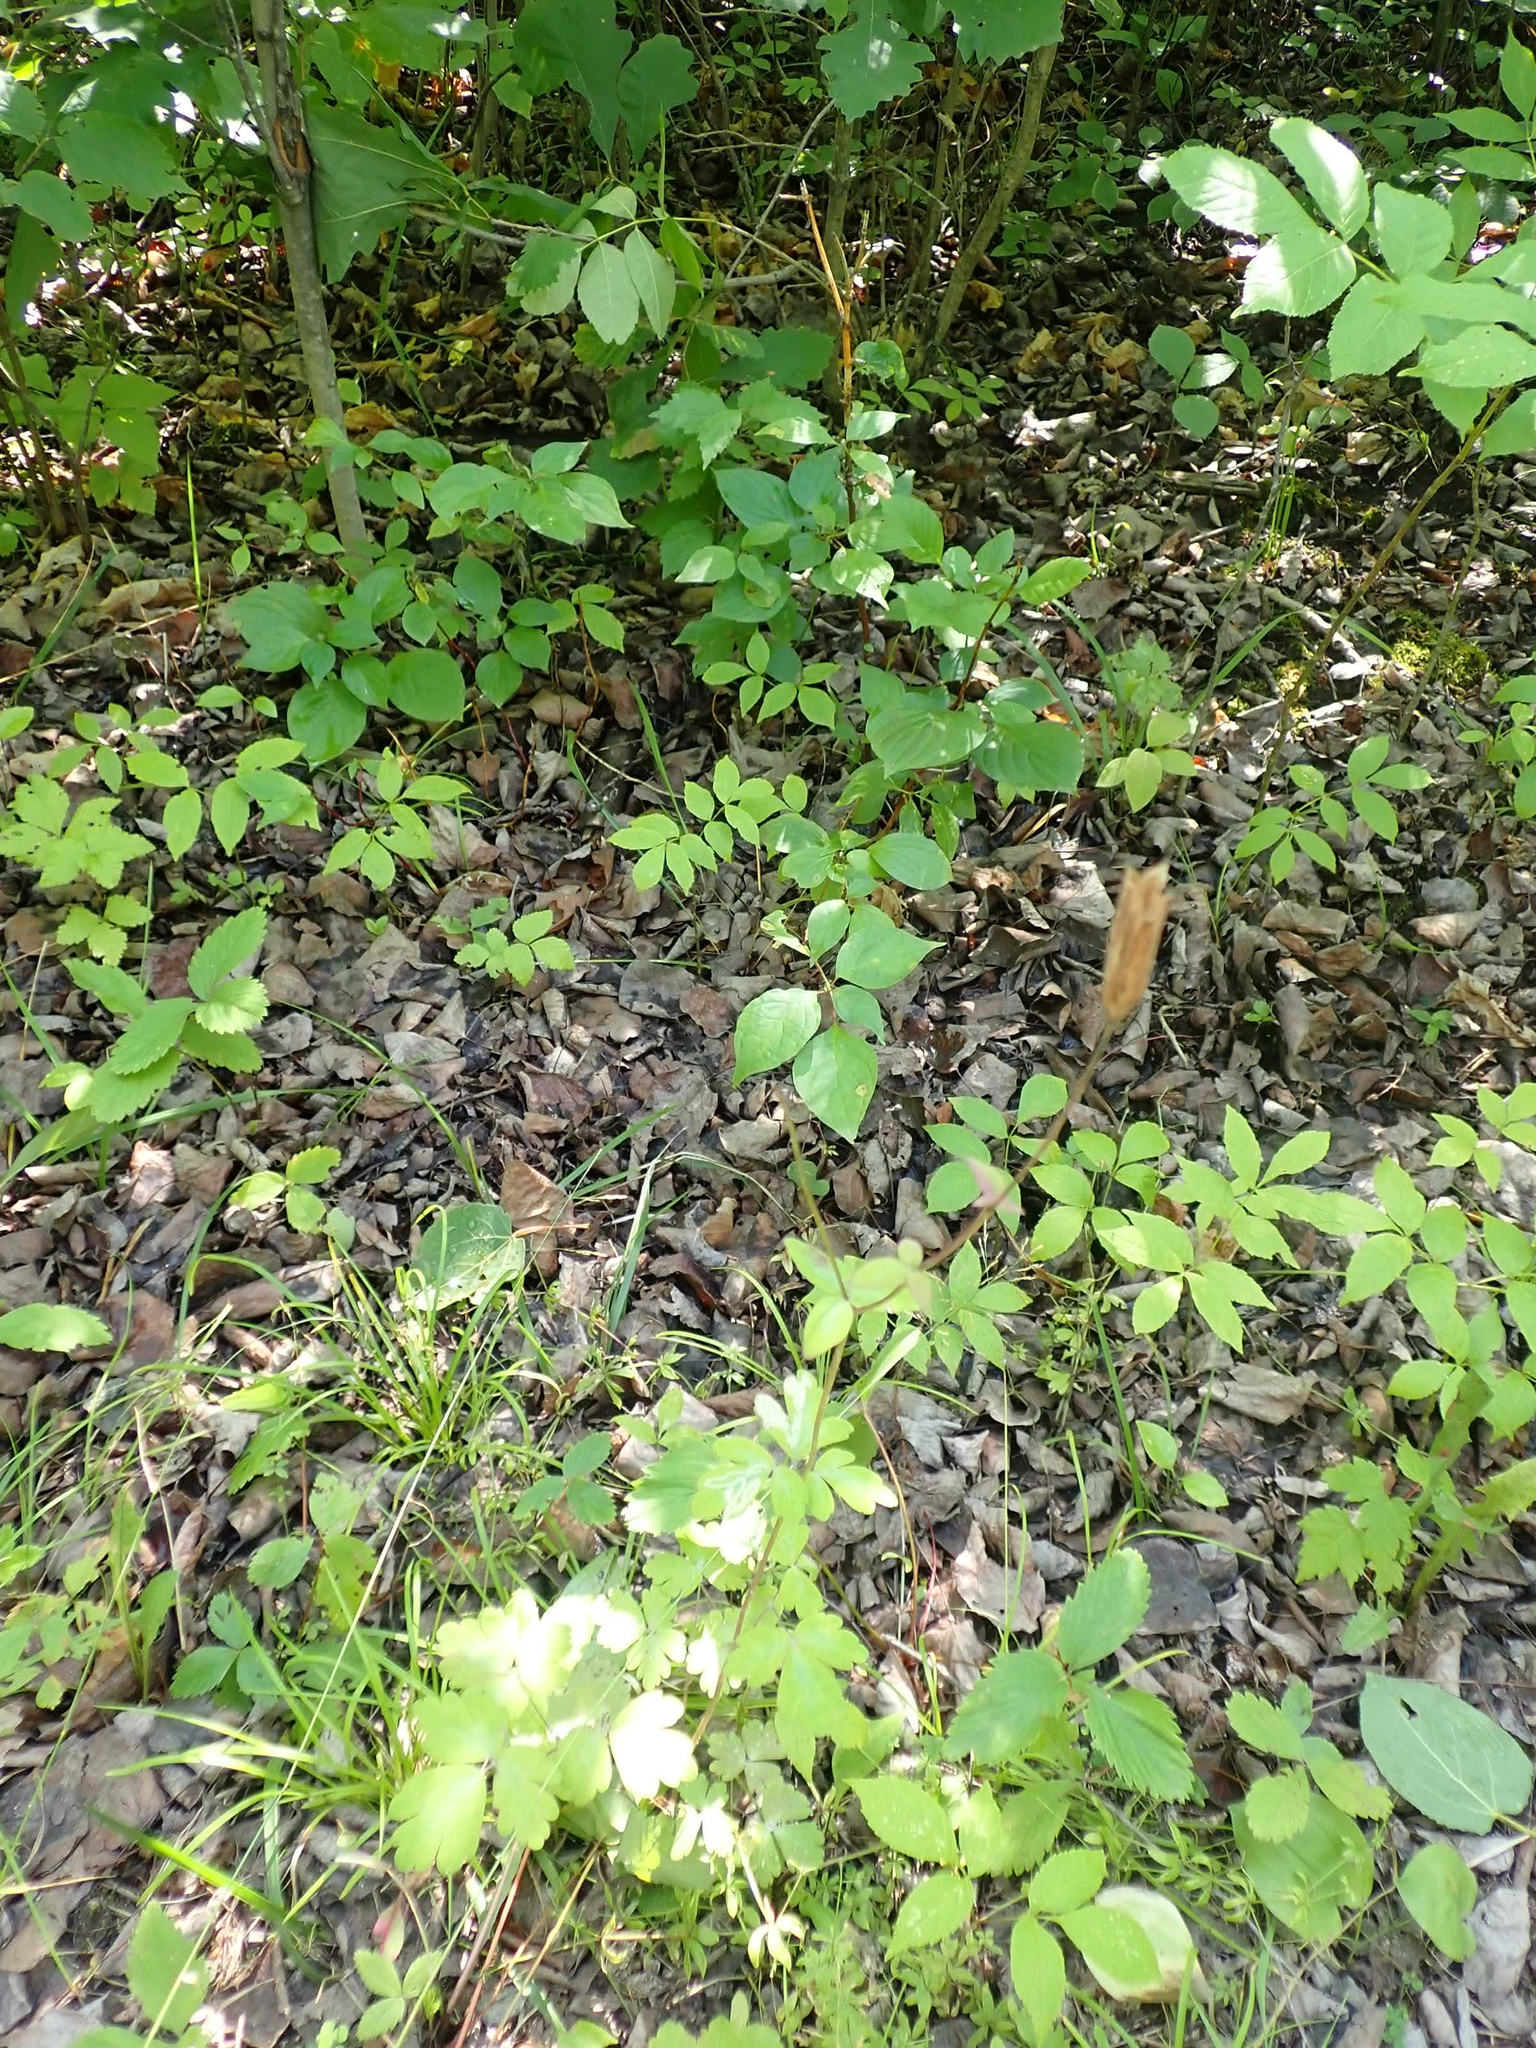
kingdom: Plantae
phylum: Tracheophyta
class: Magnoliopsida
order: Ranunculales
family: Ranunculaceae
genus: Aquilegia
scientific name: Aquilegia canadensis
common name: American columbine
